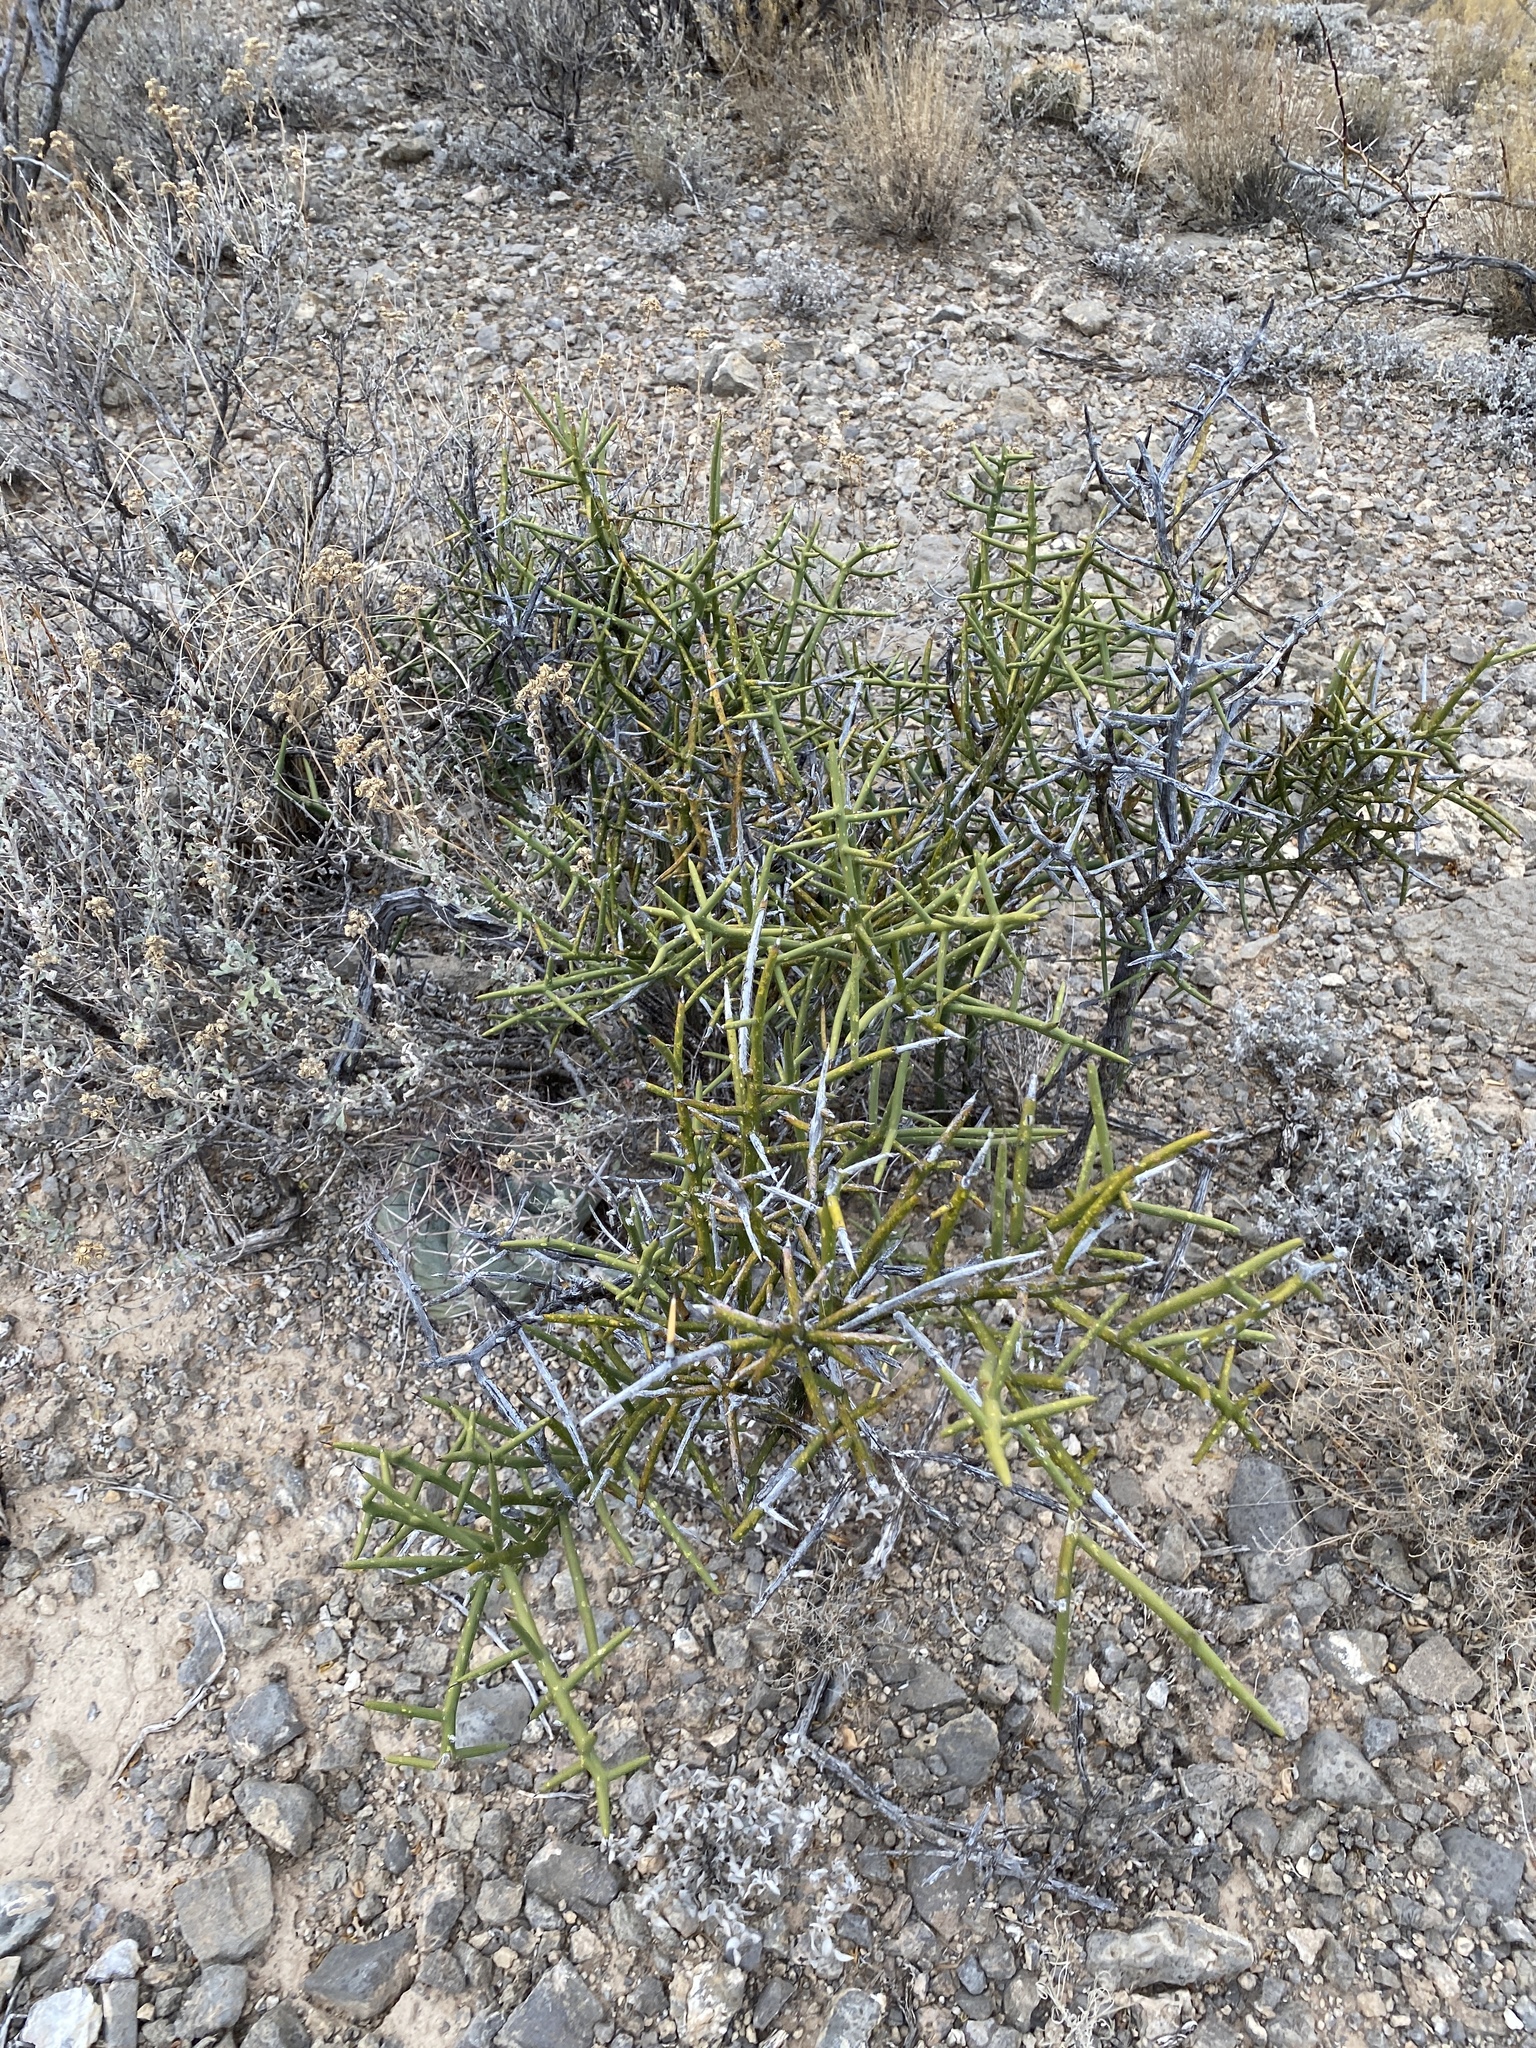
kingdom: Plantae
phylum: Tracheophyta
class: Magnoliopsida
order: Brassicales
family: Koeberliniaceae
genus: Koeberlinia
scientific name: Koeberlinia spinosa
